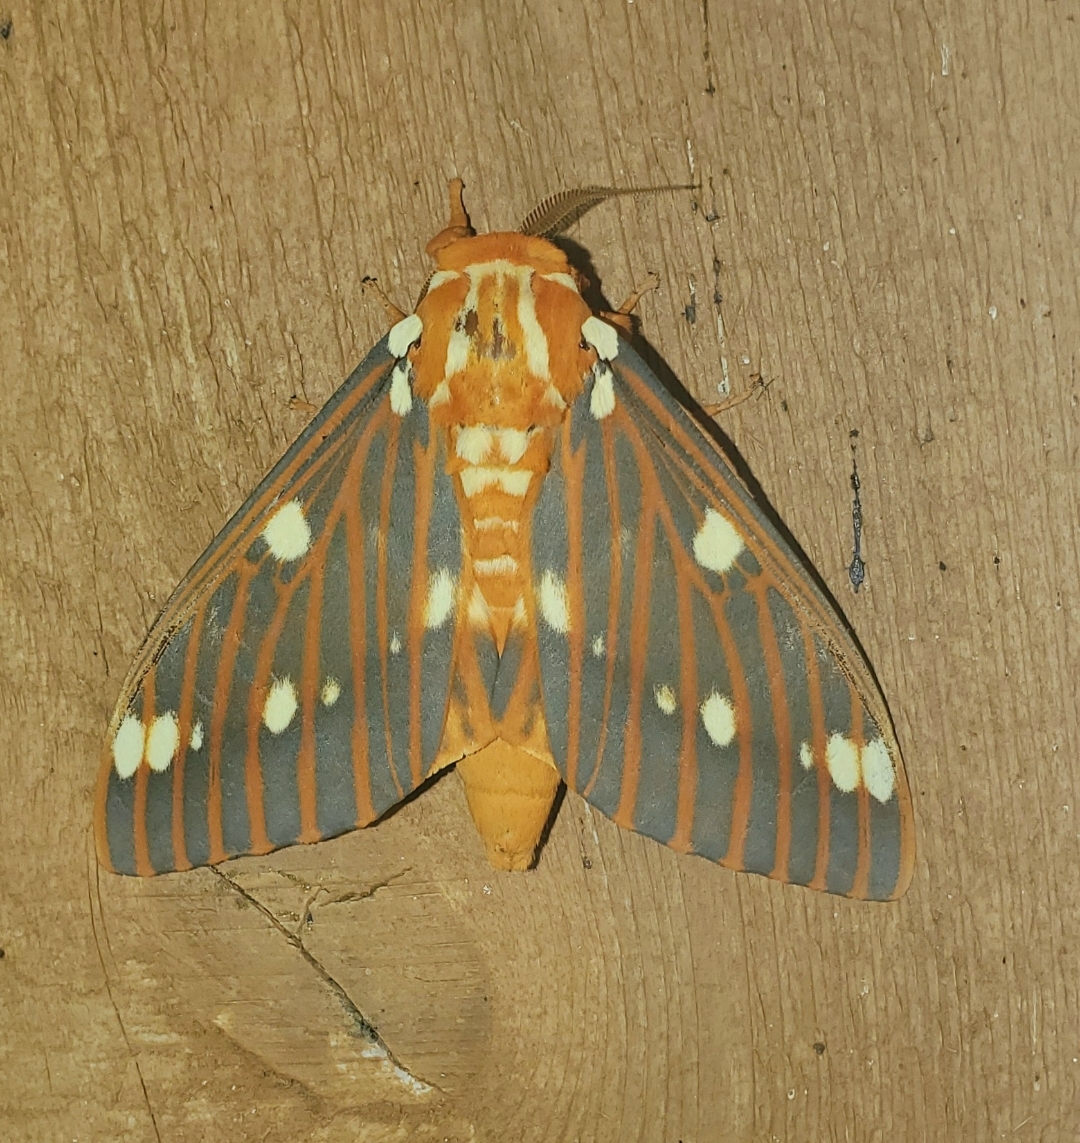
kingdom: Animalia
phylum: Arthropoda
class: Insecta
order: Lepidoptera
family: Saturniidae
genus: Citheronia
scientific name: Citheronia regalis
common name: Hickory horned devil
